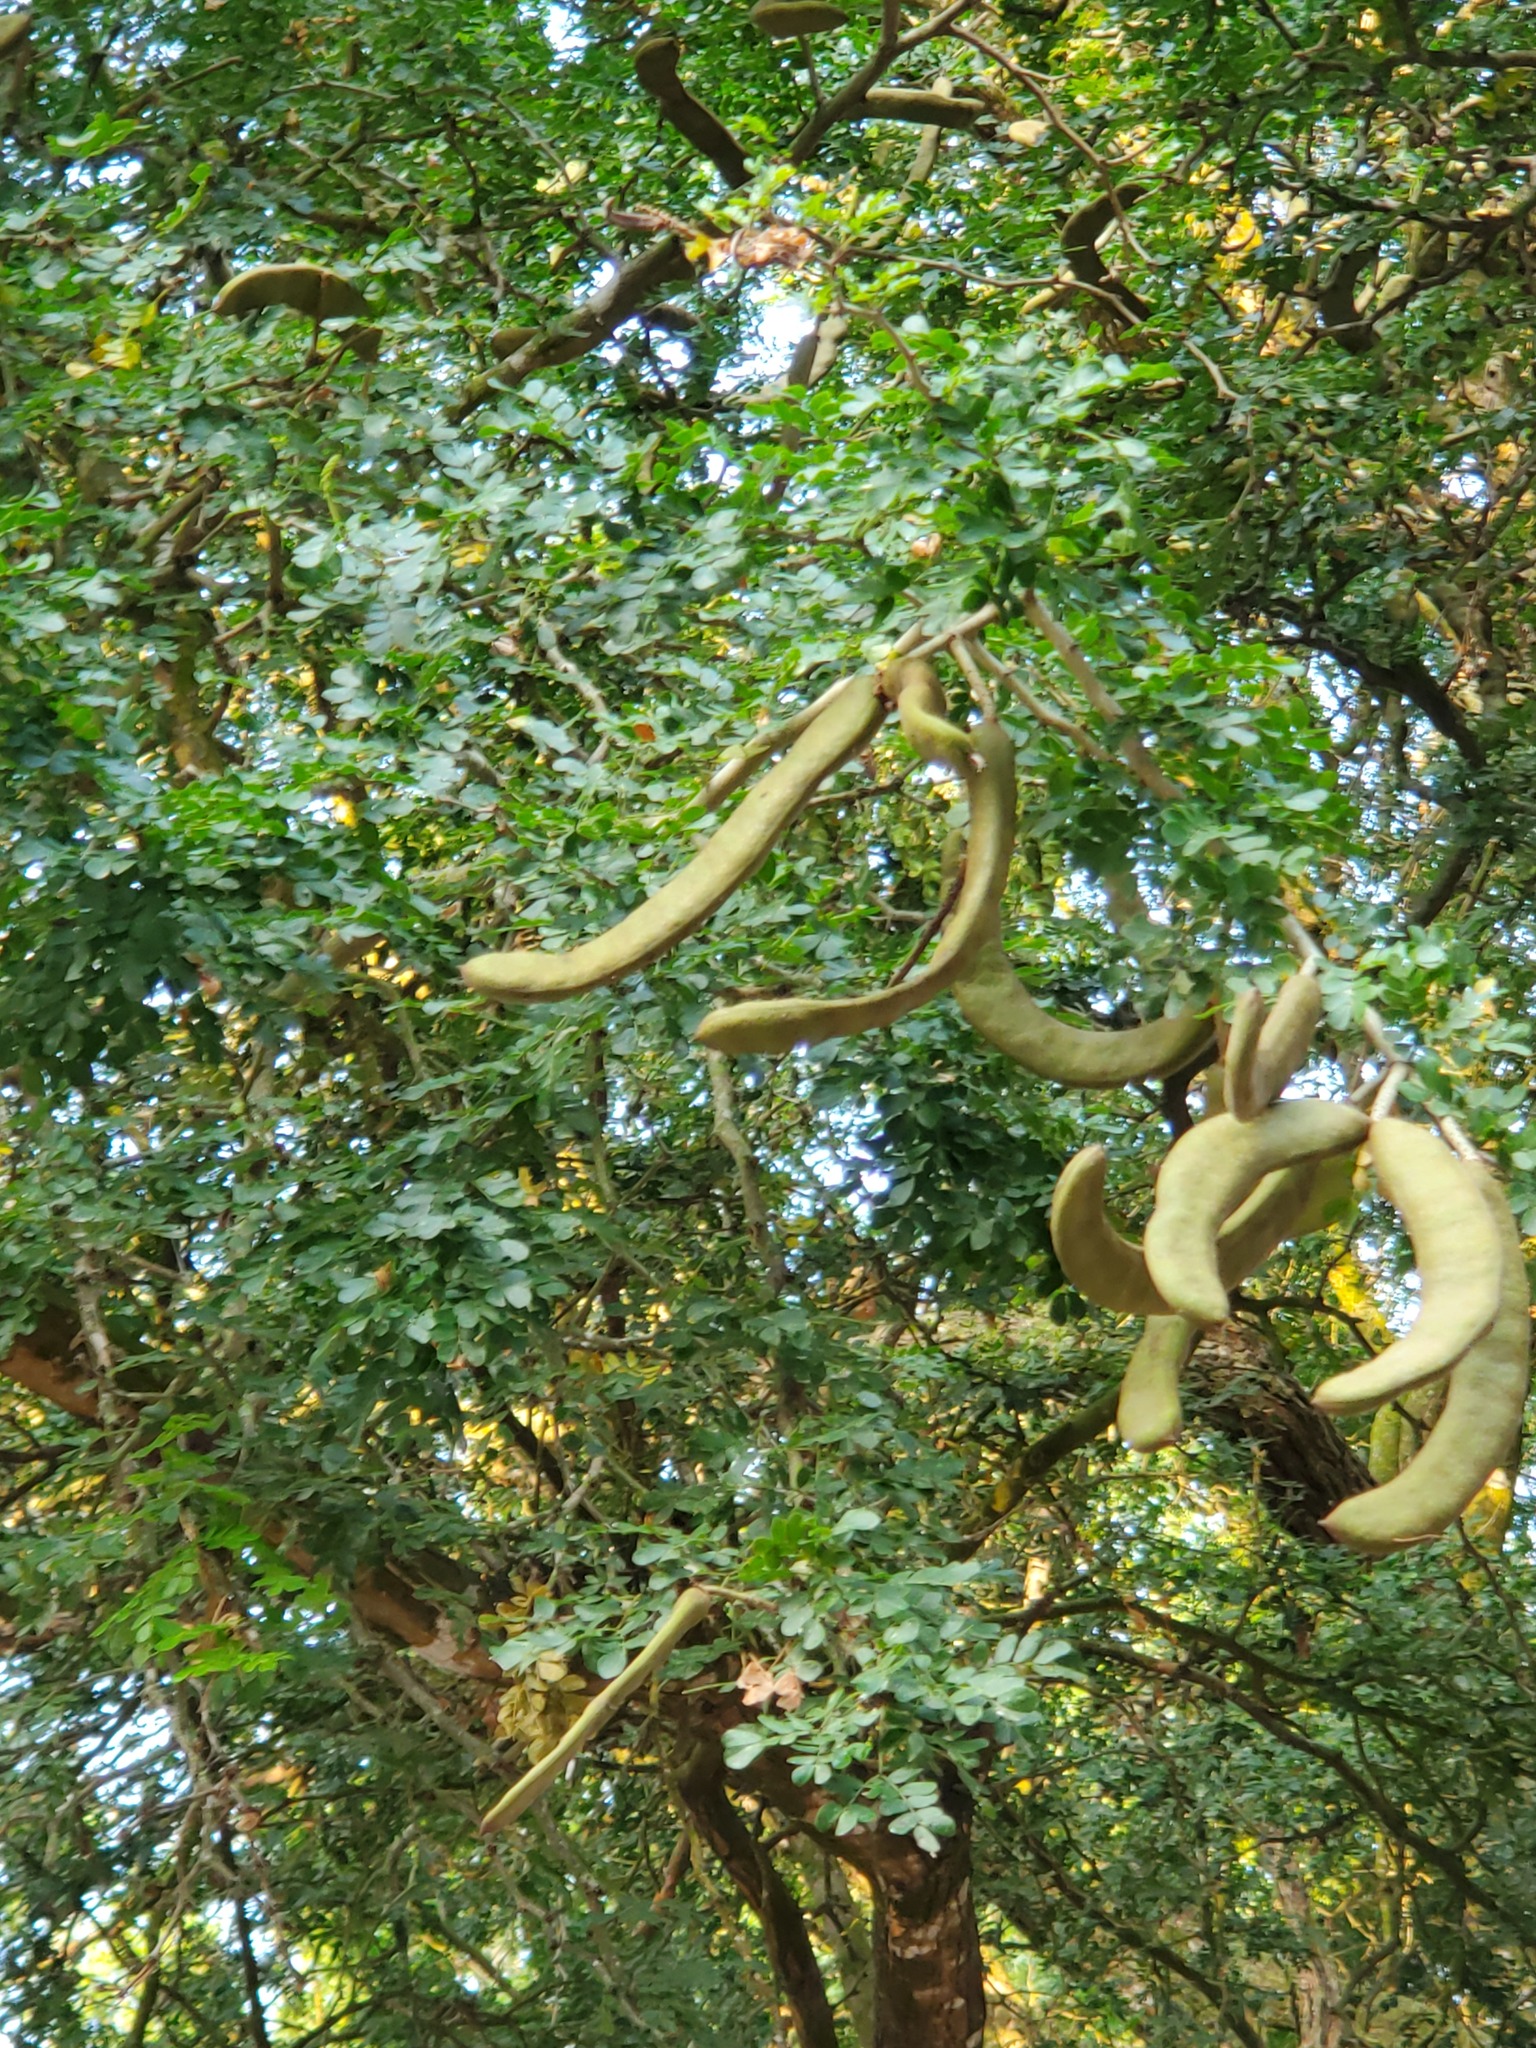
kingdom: Plantae
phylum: Tracheophyta
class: Magnoliopsida
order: Fabales
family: Fabaceae
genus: Ebenopsis
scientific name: Ebenopsis ebano
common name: Ebony blackbead
